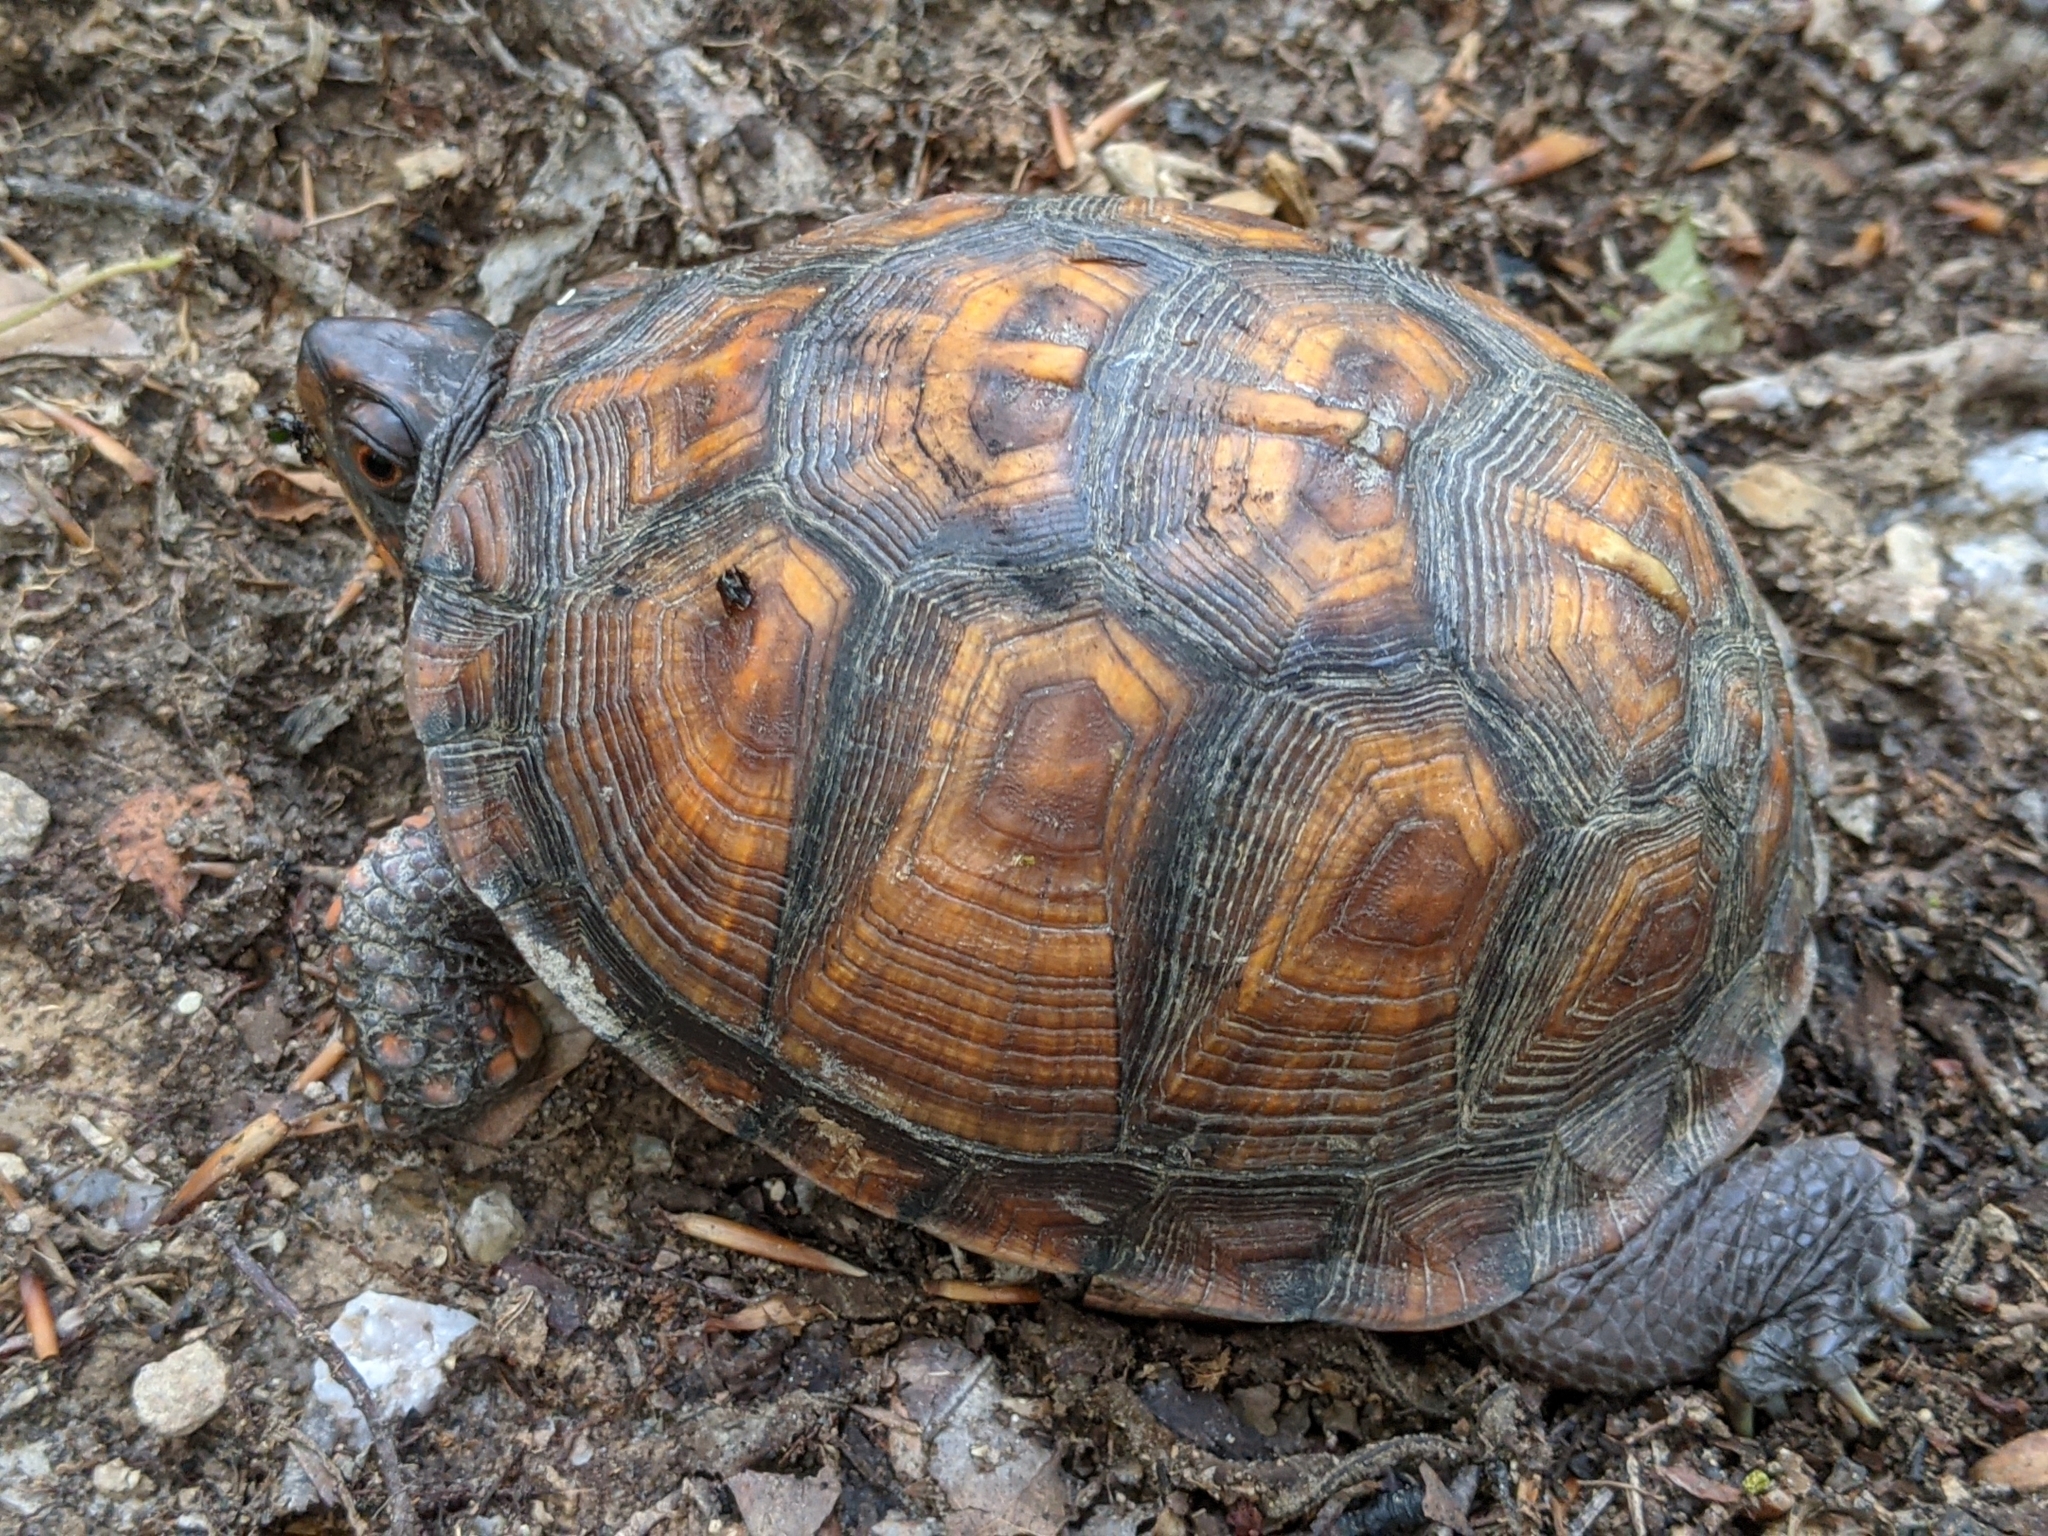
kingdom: Animalia
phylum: Chordata
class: Testudines
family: Emydidae
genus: Terrapene
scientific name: Terrapene carolina
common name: Common box turtle
